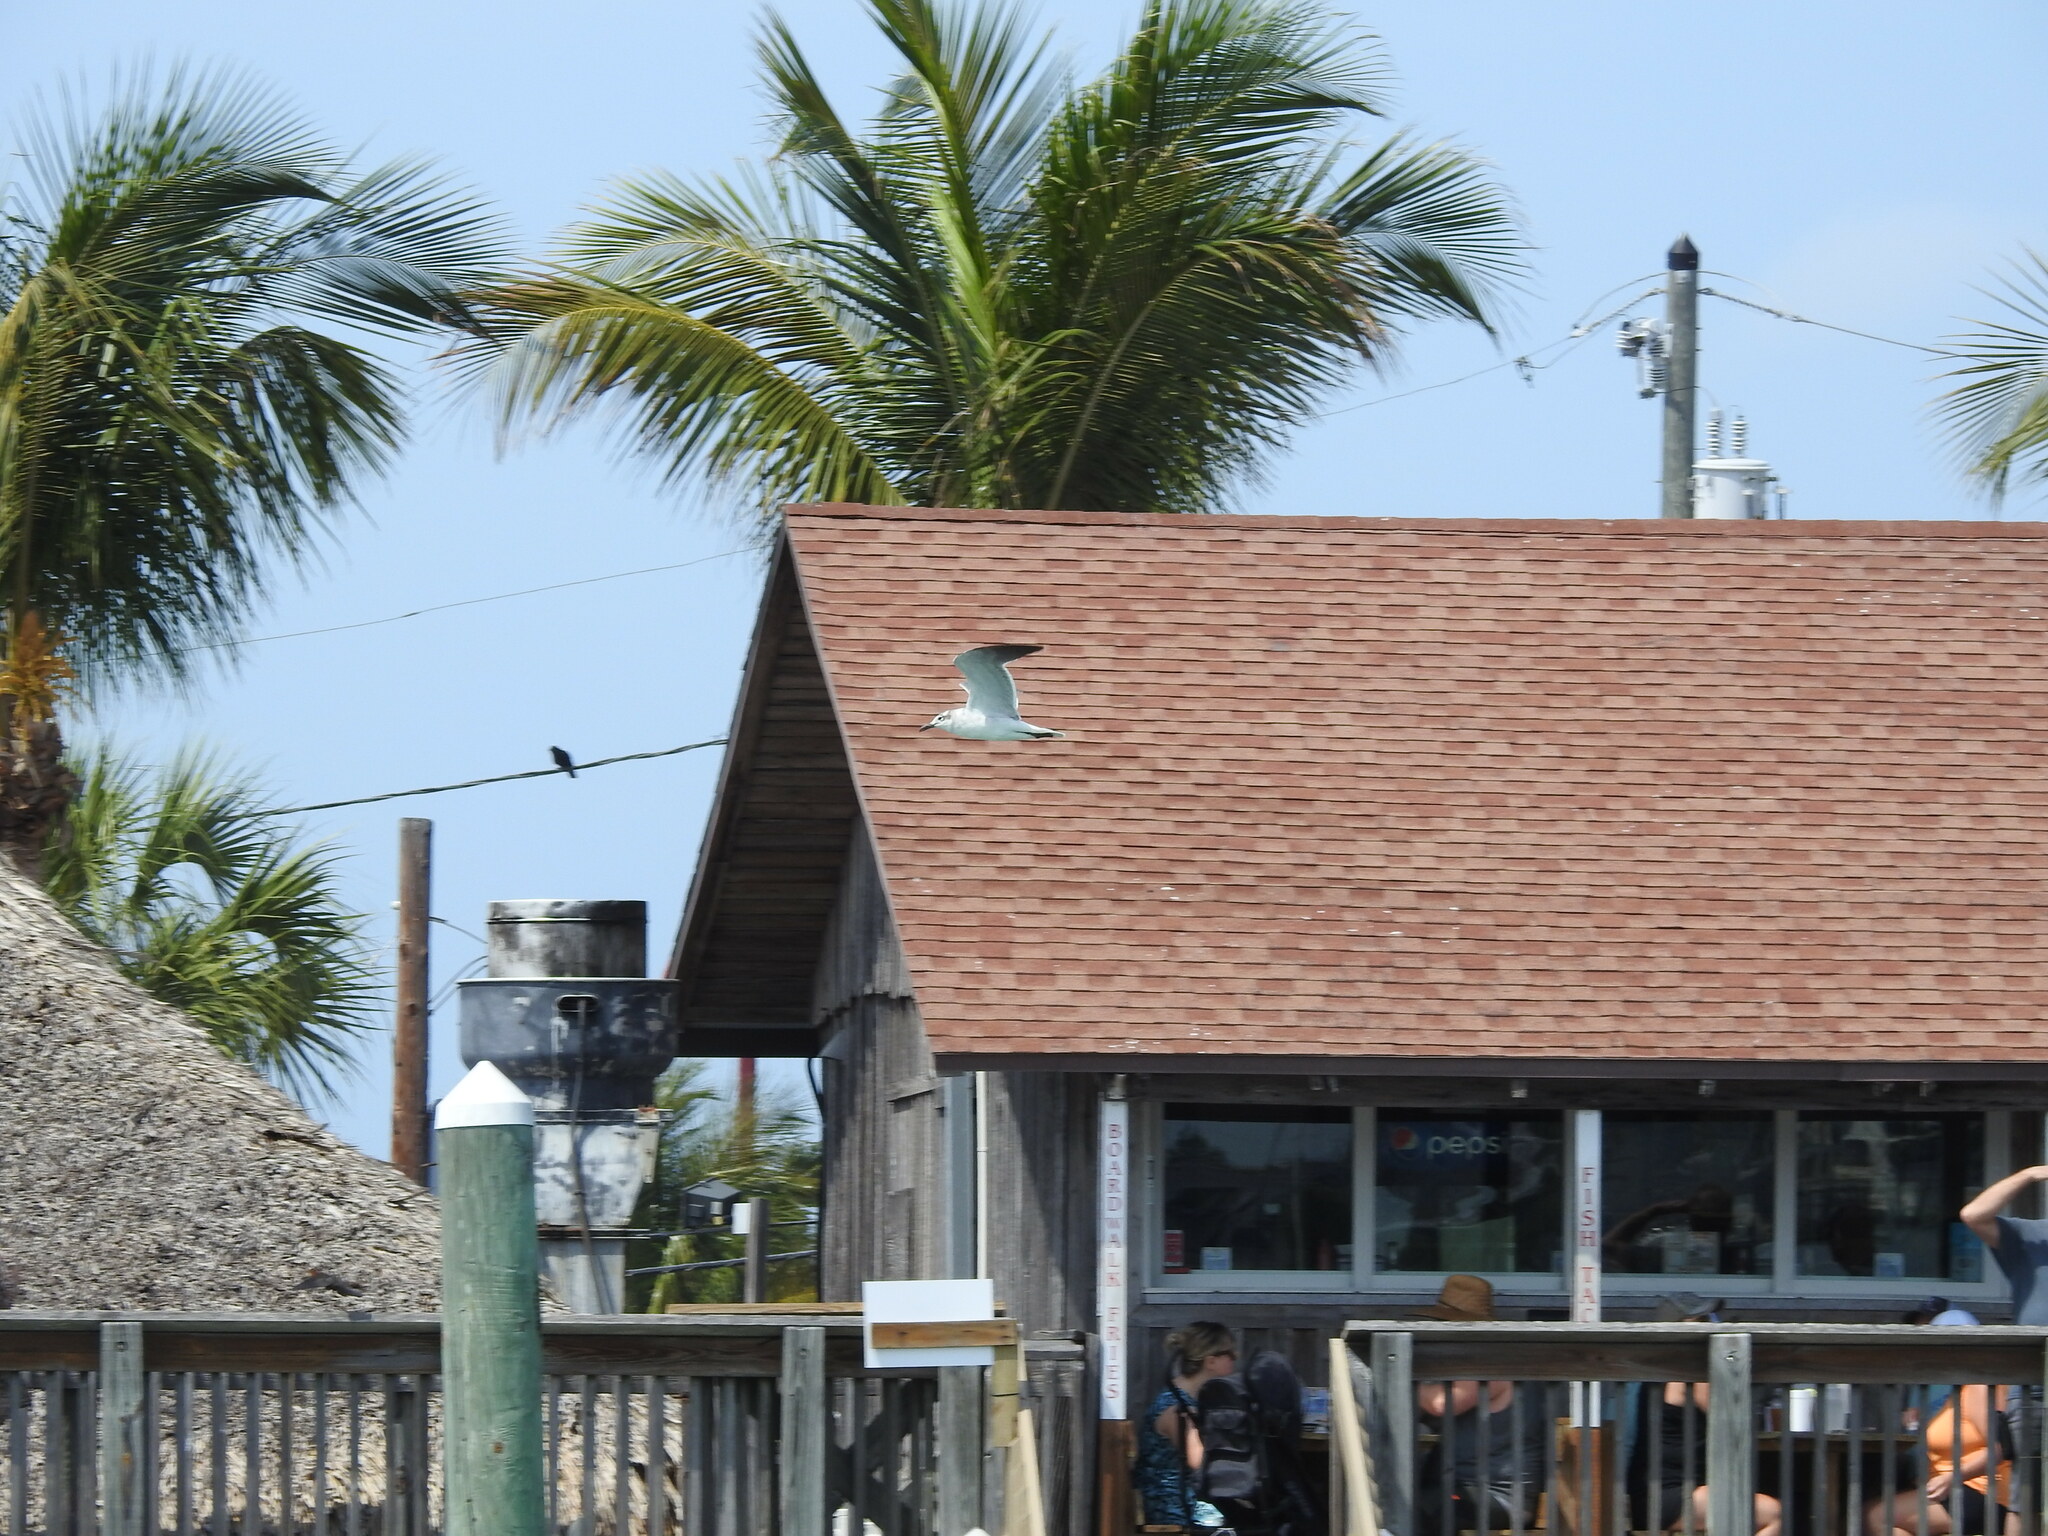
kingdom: Animalia
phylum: Chordata
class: Aves
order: Charadriiformes
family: Laridae
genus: Leucophaeus
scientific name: Leucophaeus atricilla
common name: Laughing gull
